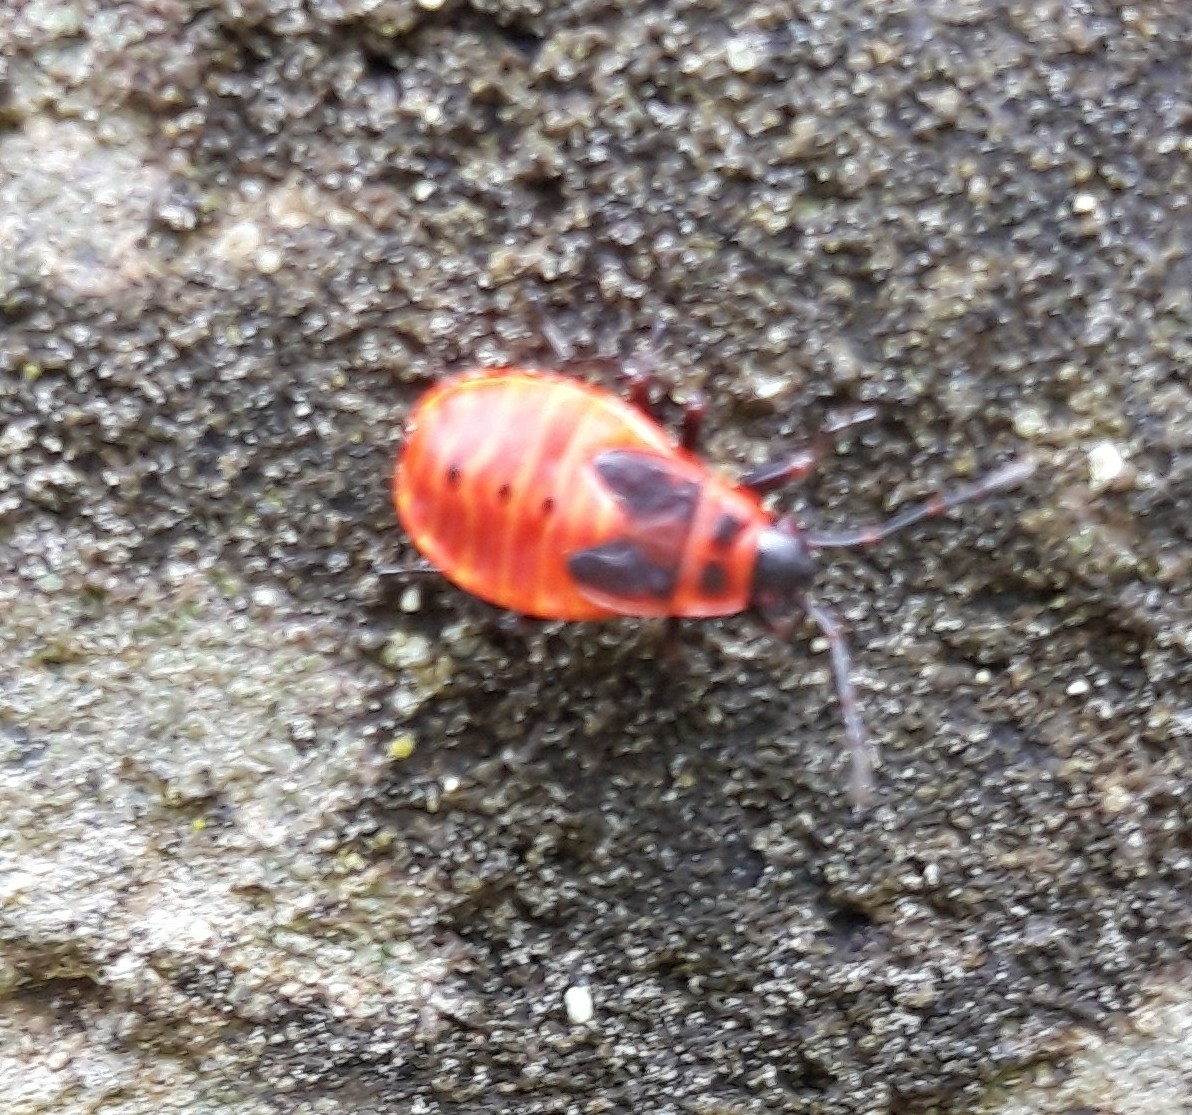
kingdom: Animalia
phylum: Arthropoda
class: Insecta
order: Hemiptera
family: Pyrrhocoridae
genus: Pyrrhocoris
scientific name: Pyrrhocoris apterus
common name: Firebug
